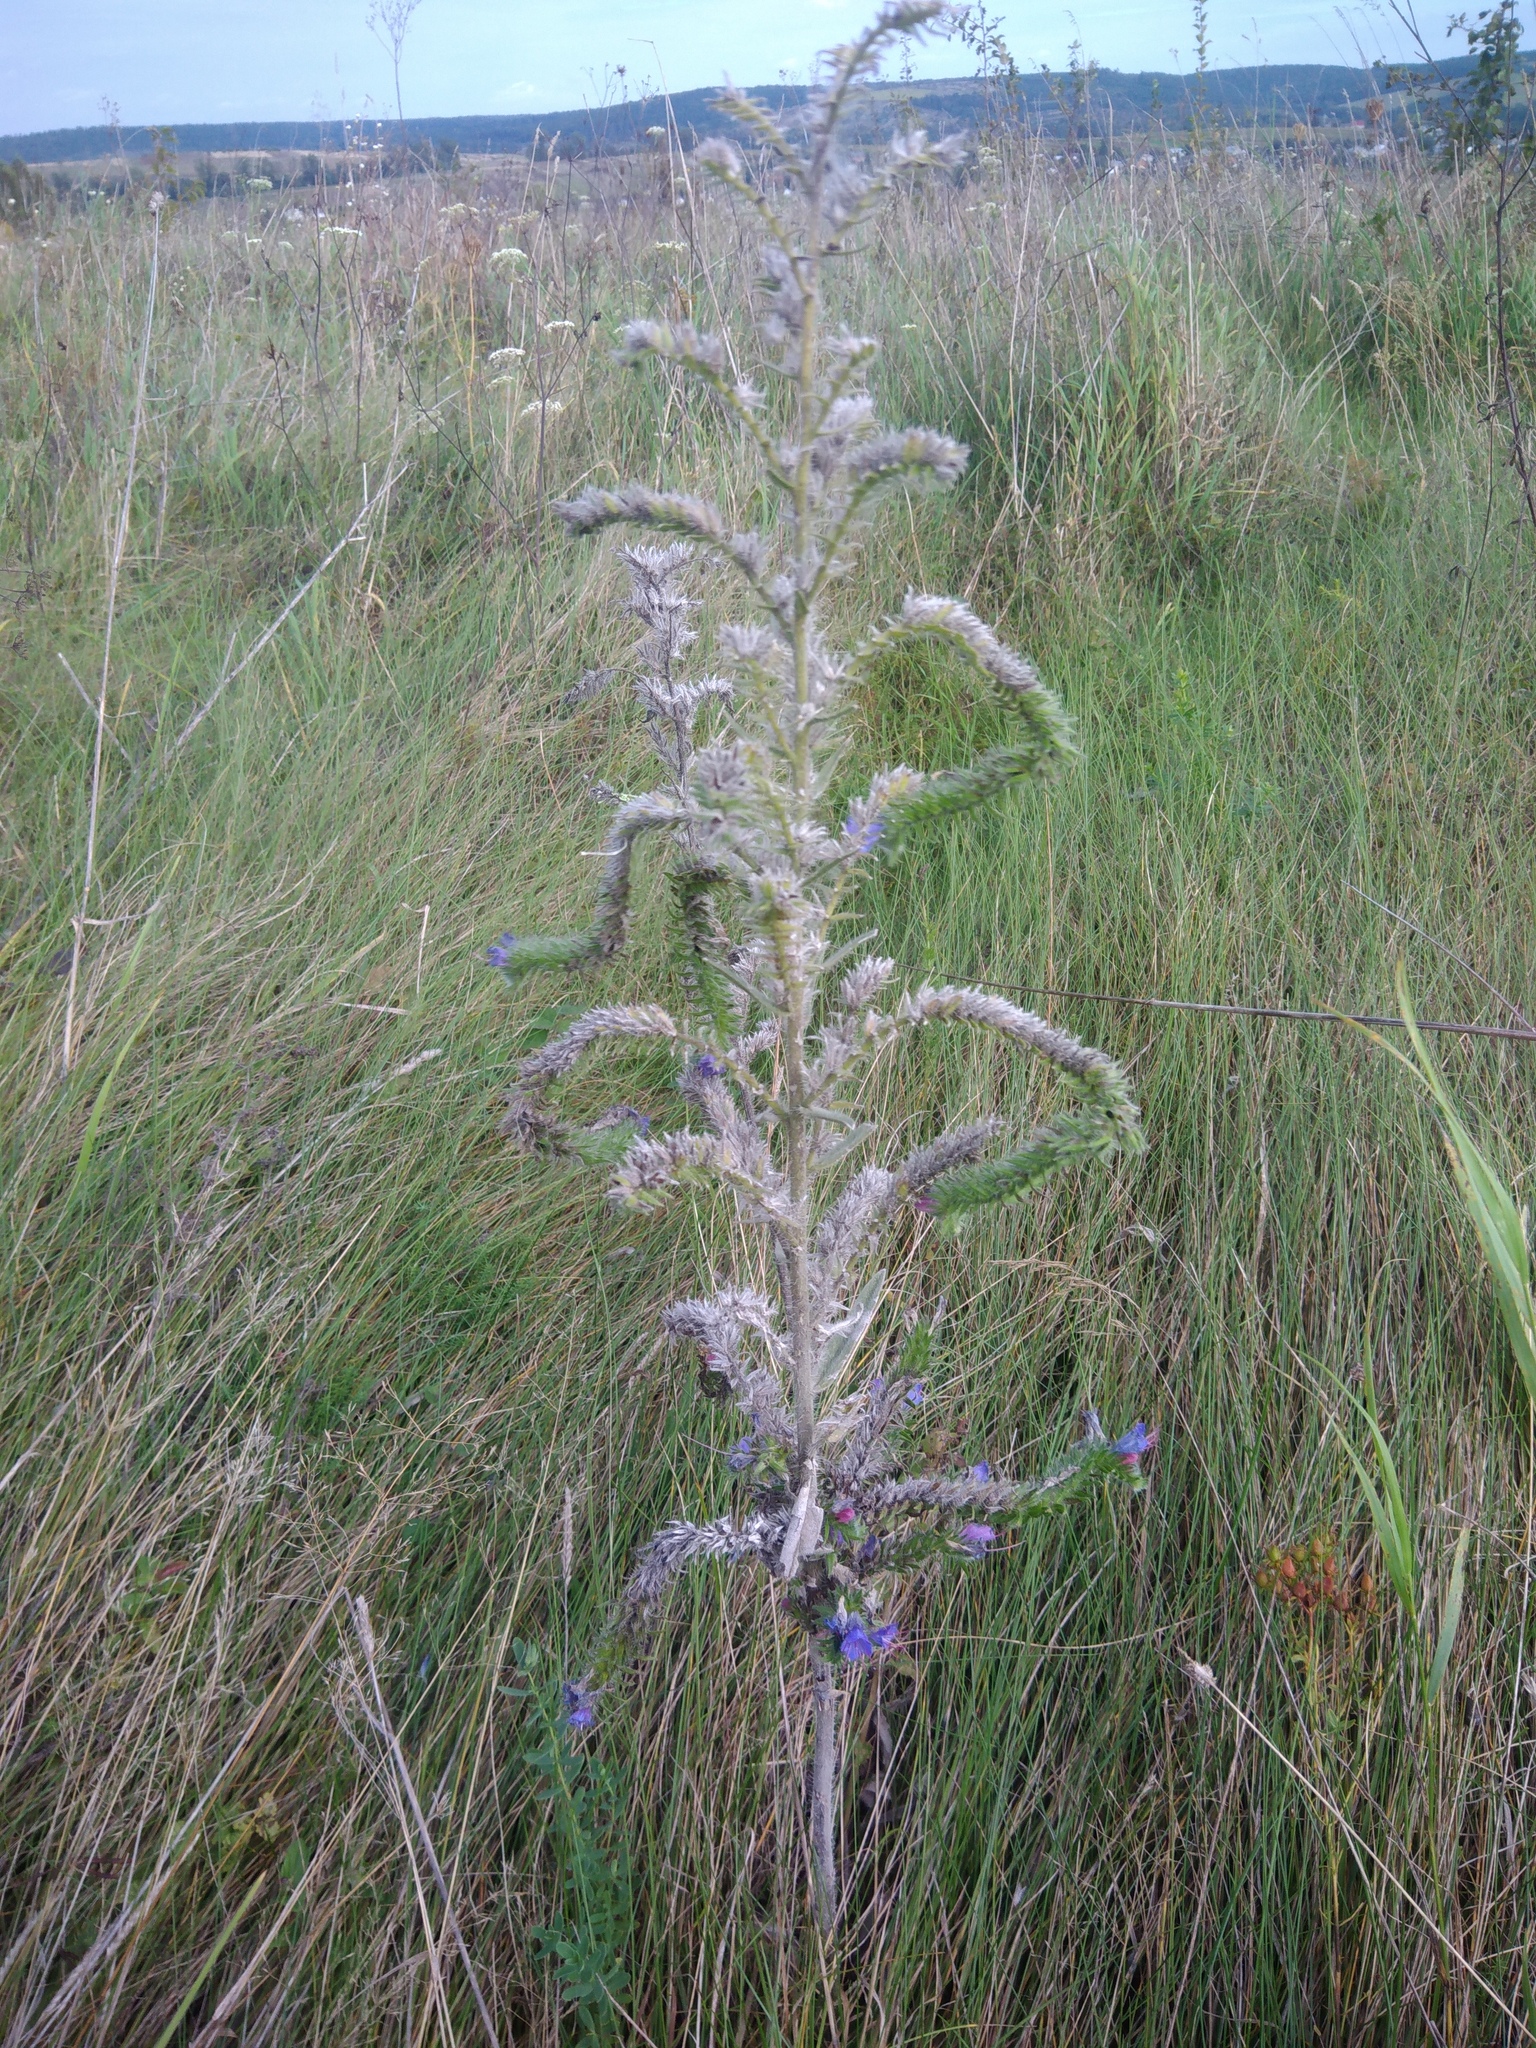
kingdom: Plantae
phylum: Tracheophyta
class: Magnoliopsida
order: Boraginales
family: Boraginaceae
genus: Echium
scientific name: Echium vulgare
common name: Common viper's bugloss
